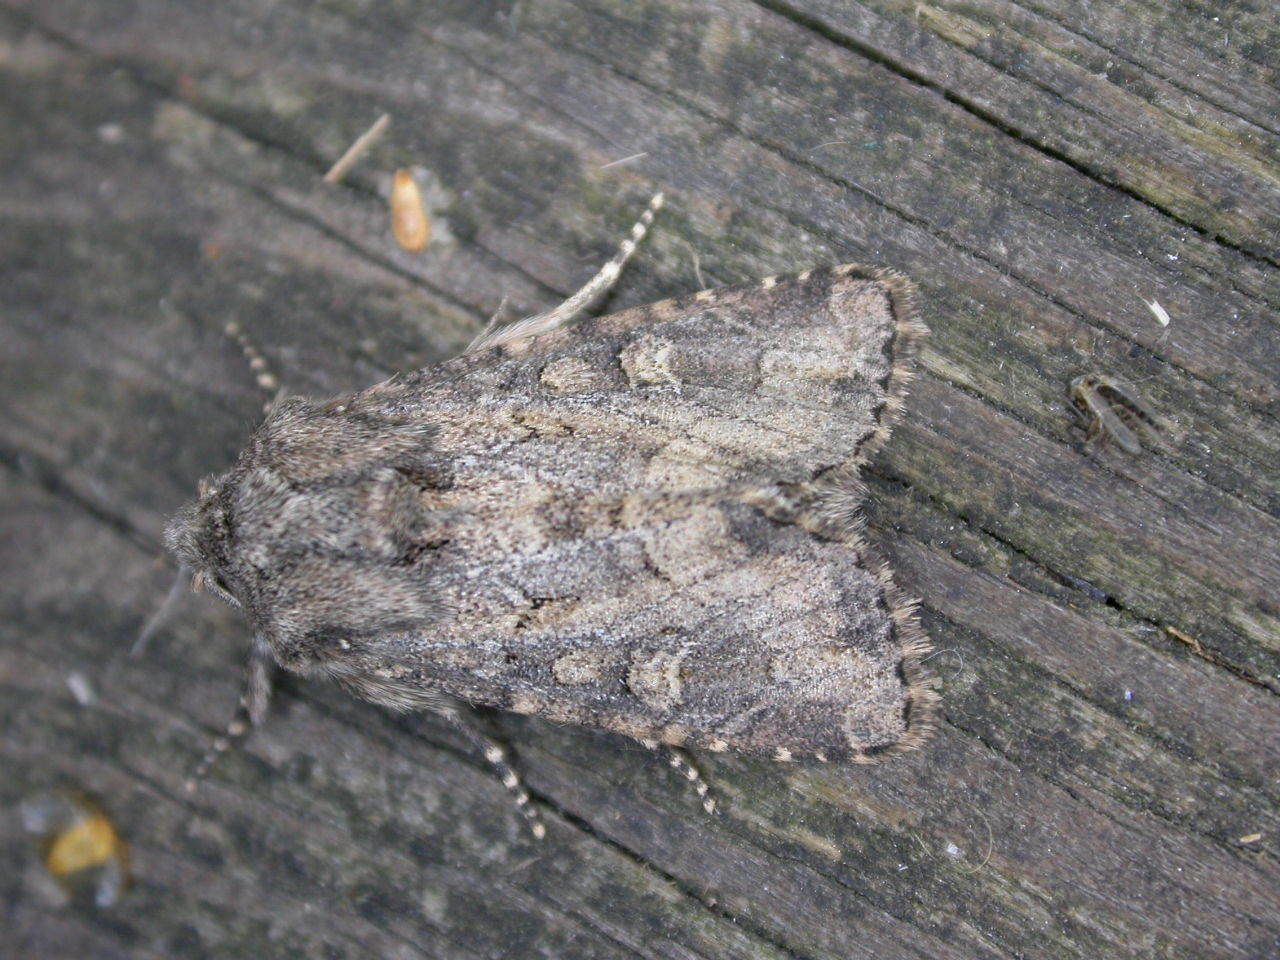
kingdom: Animalia
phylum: Arthropoda
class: Insecta
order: Lepidoptera
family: Noctuidae
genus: Luperina
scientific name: Luperina testacea
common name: Flounced rustic
